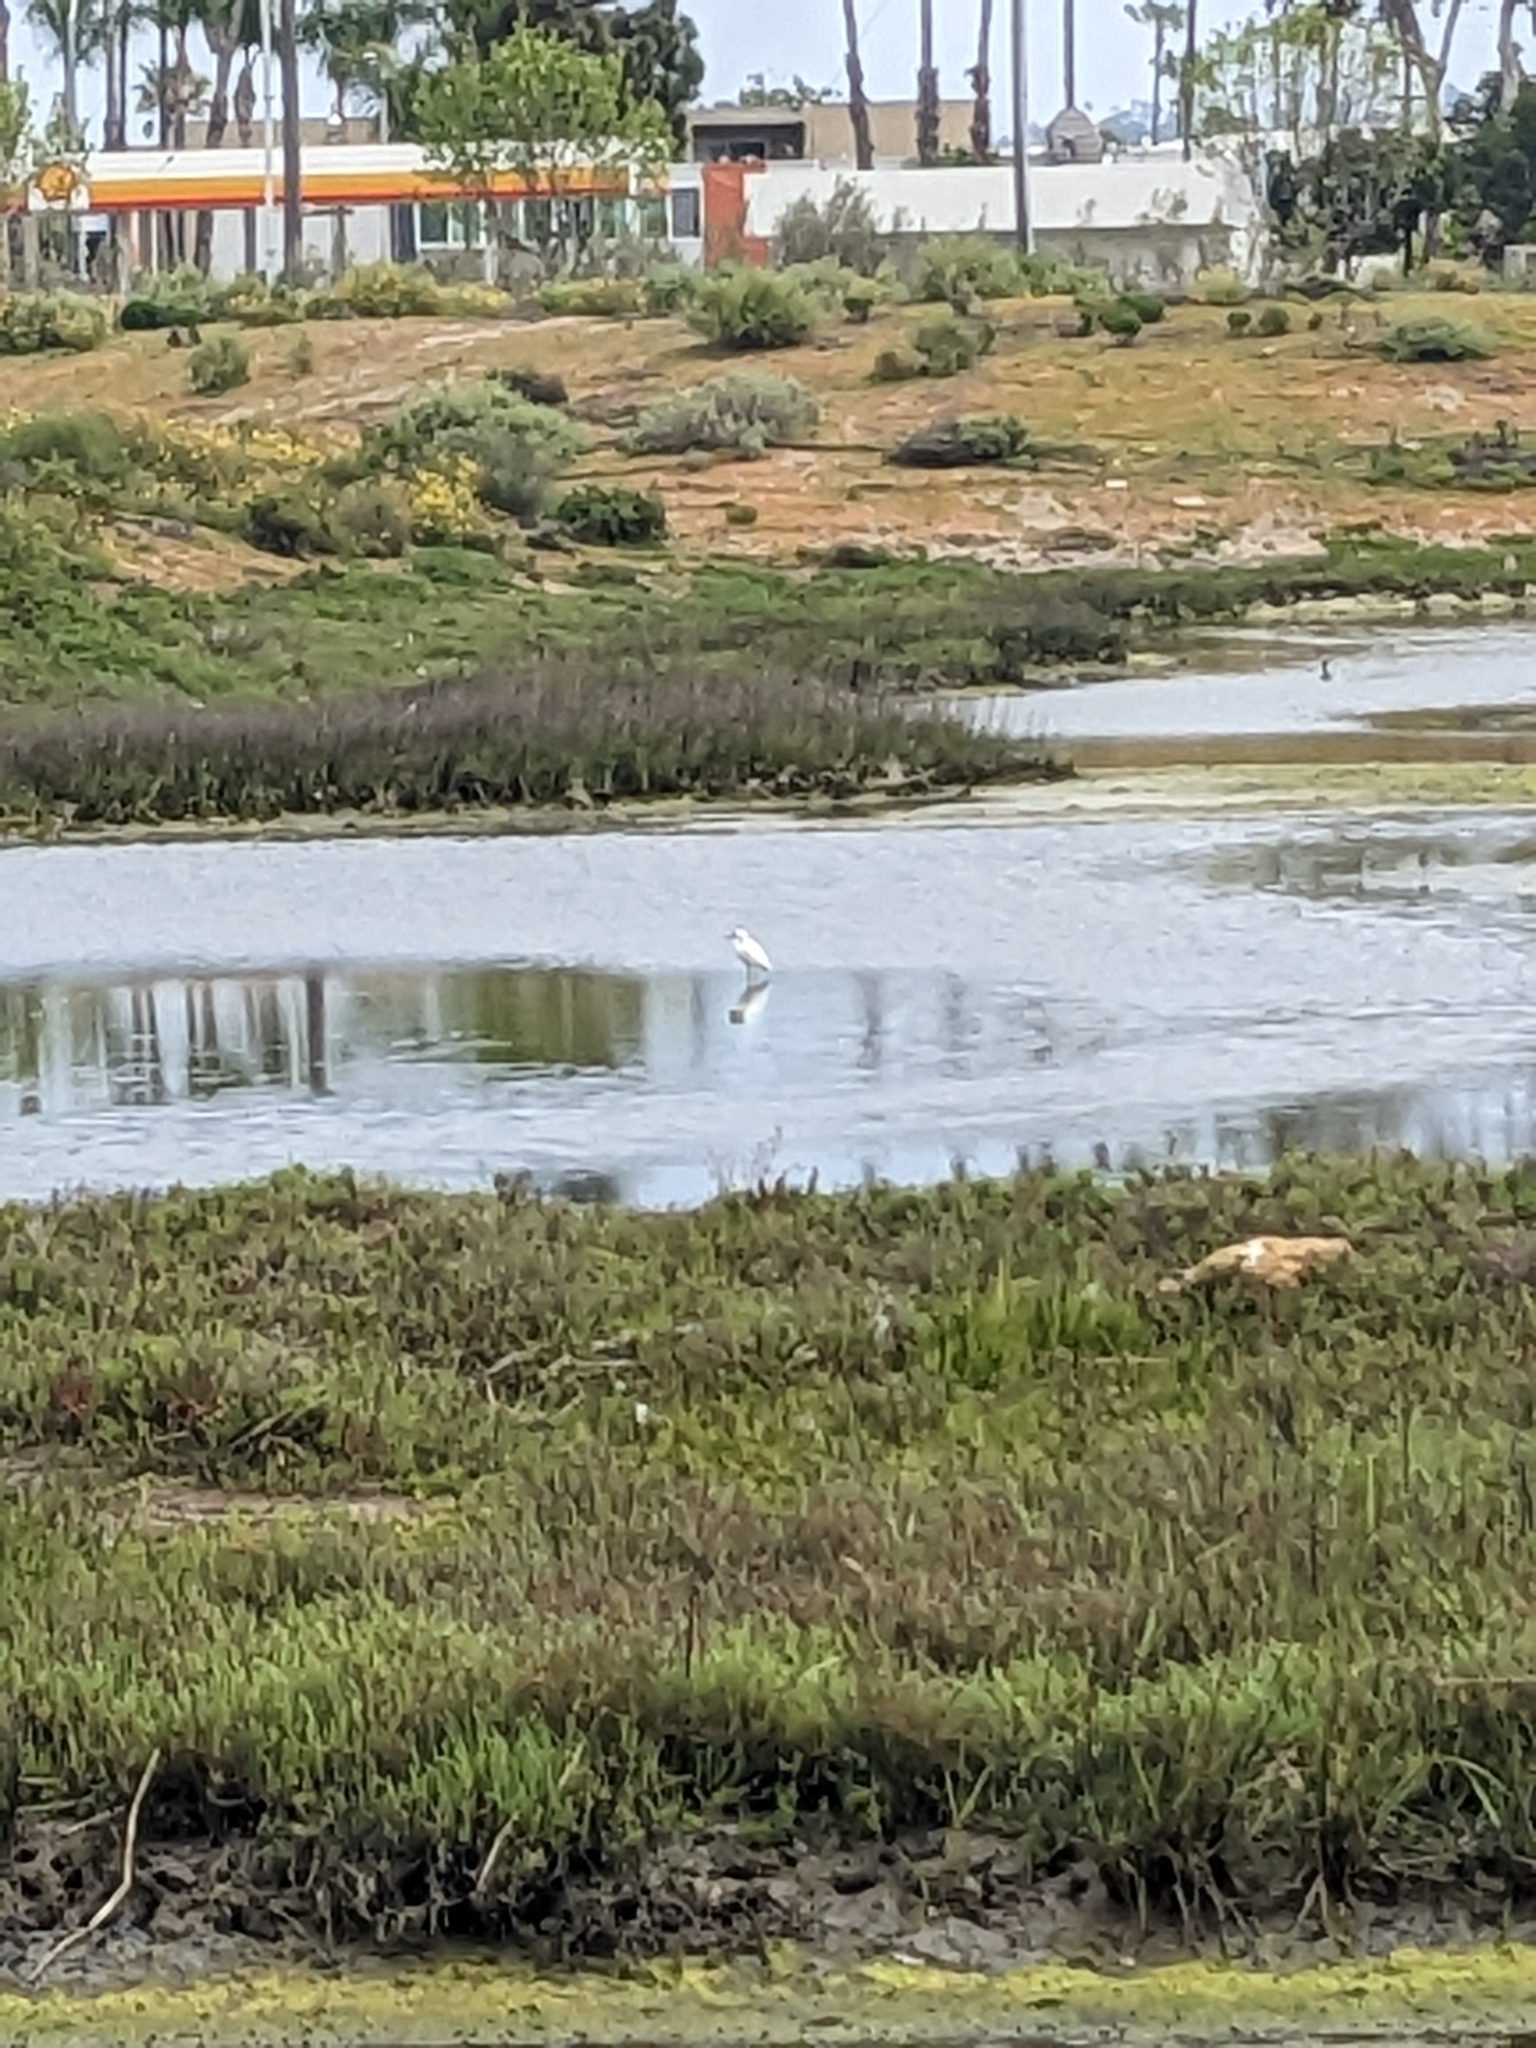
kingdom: Animalia
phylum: Chordata
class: Aves
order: Pelecaniformes
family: Ardeidae
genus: Egretta
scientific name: Egretta thula
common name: Snowy egret
